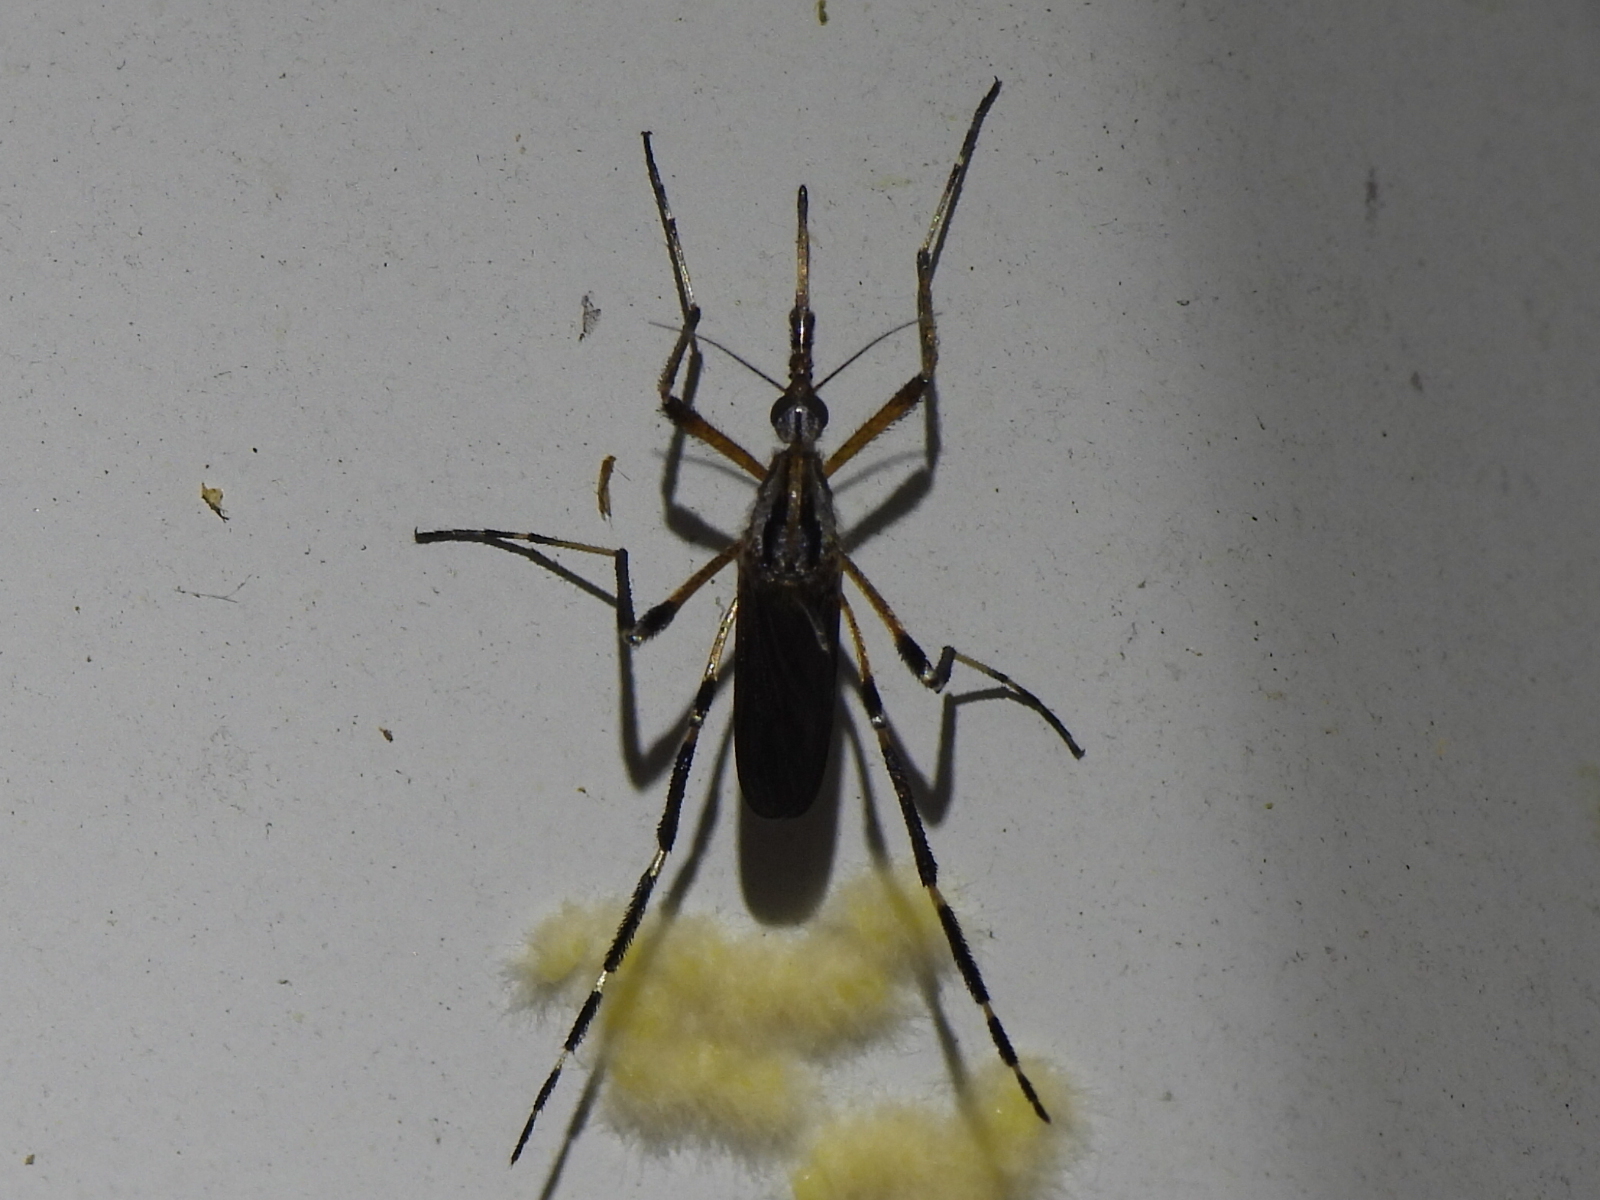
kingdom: Animalia
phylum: Arthropoda
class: Insecta
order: Diptera
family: Culicidae
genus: Psorophora
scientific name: Psorophora ciliata
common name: Gallinipper
